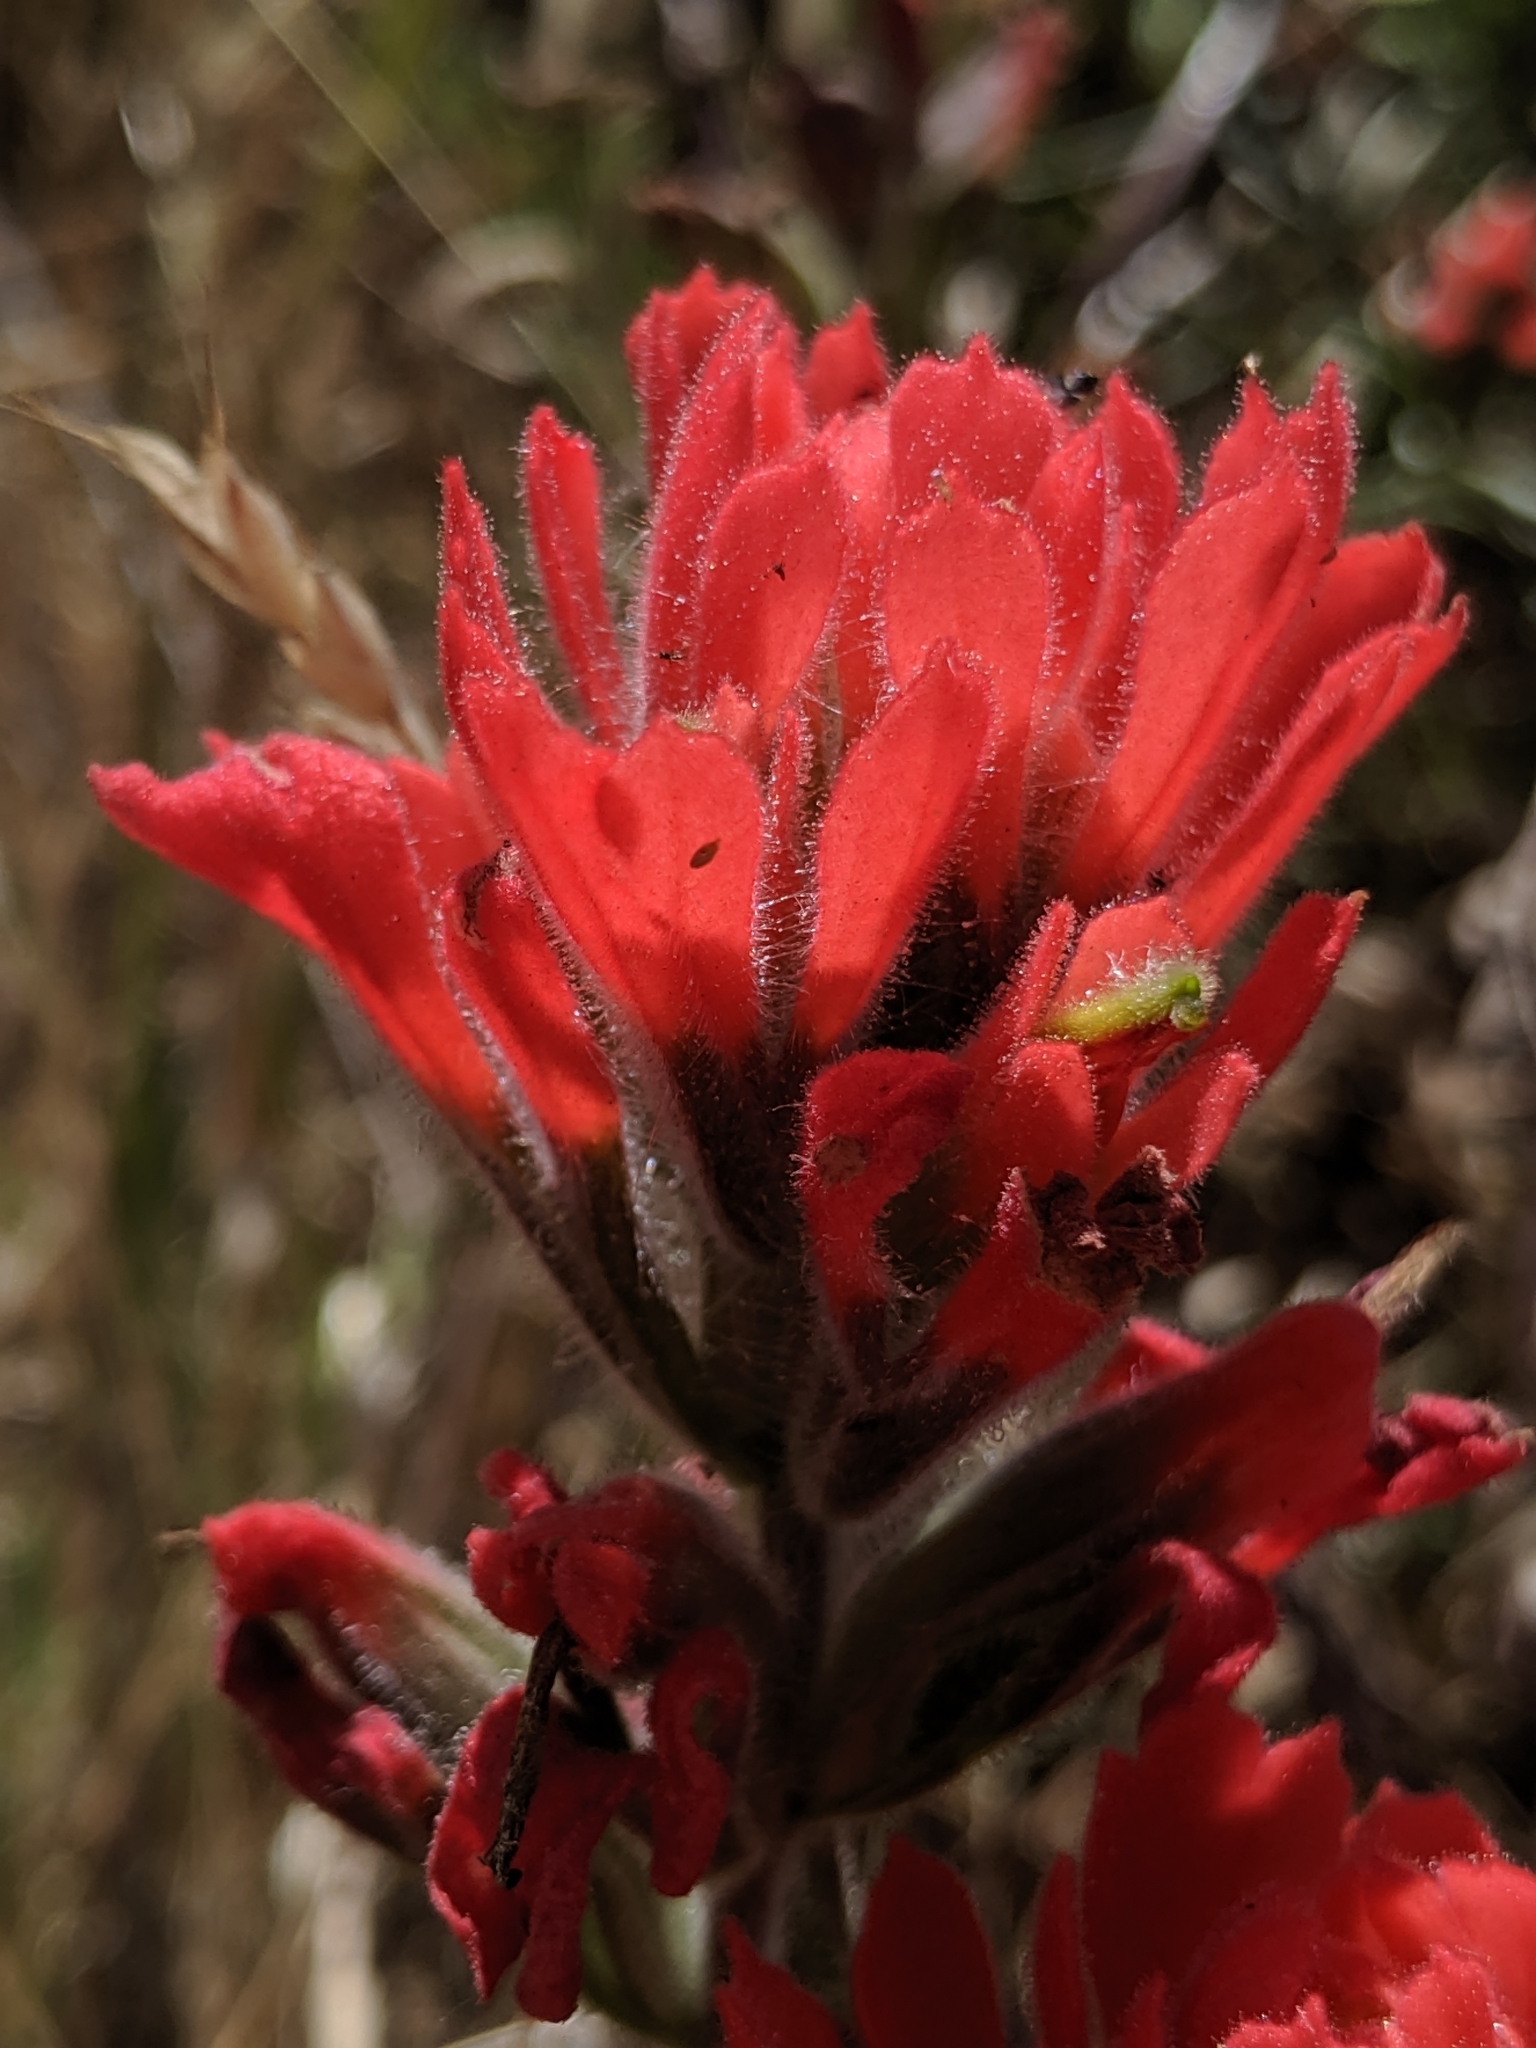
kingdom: Plantae
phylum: Tracheophyta
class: Magnoliopsida
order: Lamiales
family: Orobanchaceae
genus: Castilleja
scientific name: Castilleja affinis
